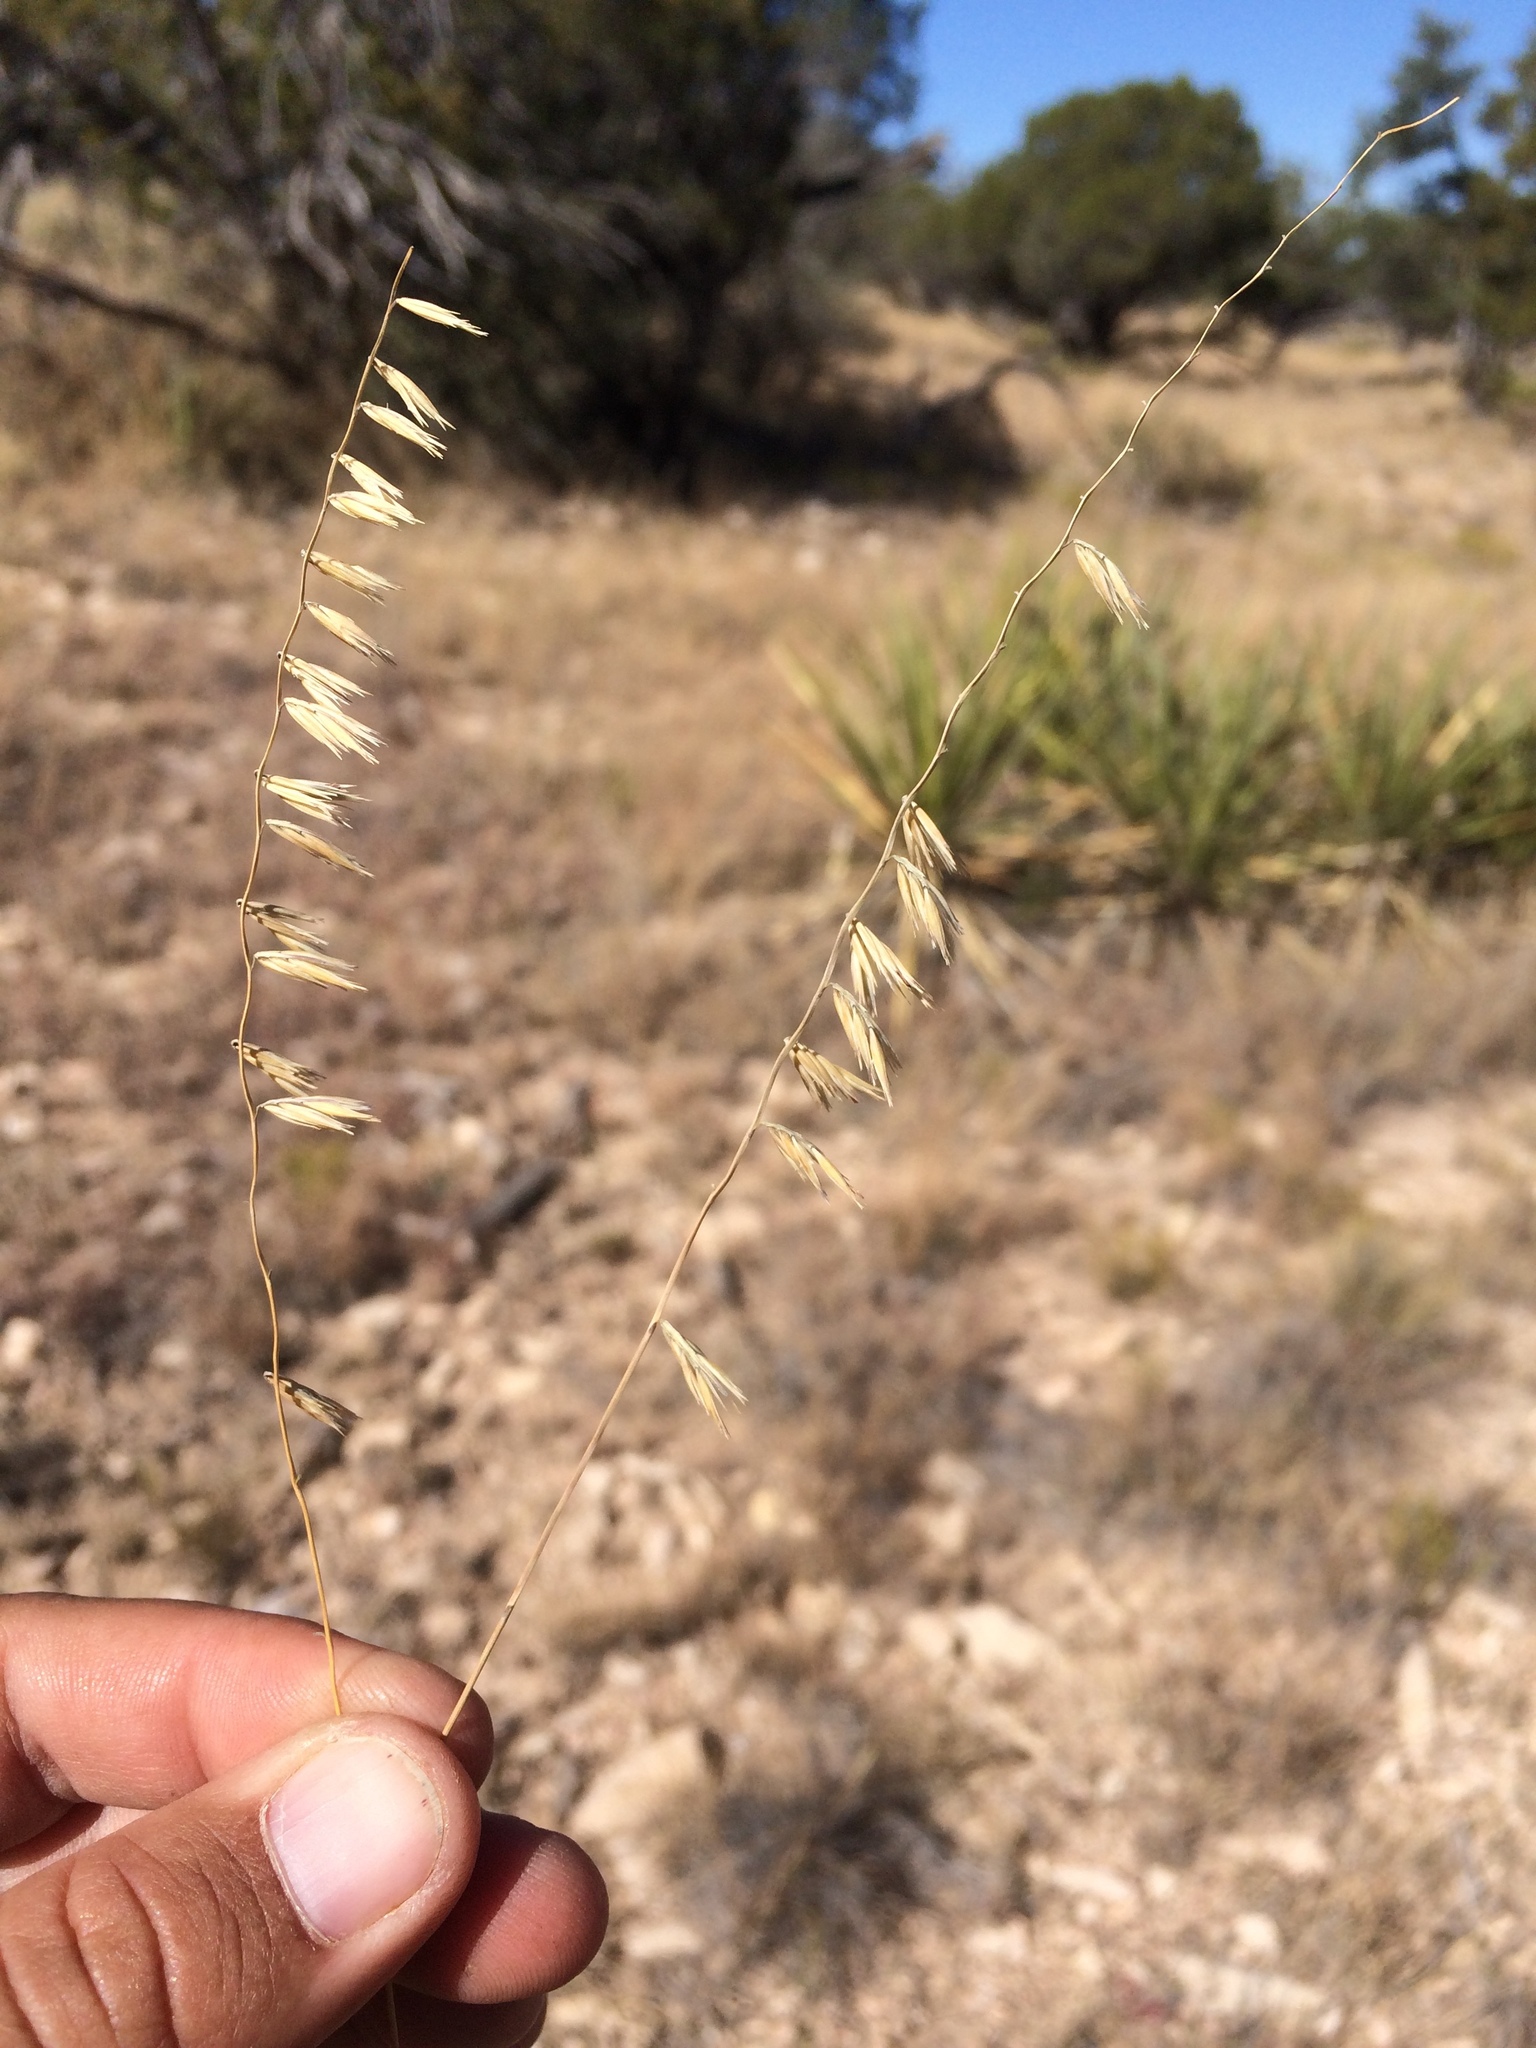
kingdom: Plantae
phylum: Tracheophyta
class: Liliopsida
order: Poales
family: Poaceae
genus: Bouteloua
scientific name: Bouteloua warnockii
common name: Warnock's grama
